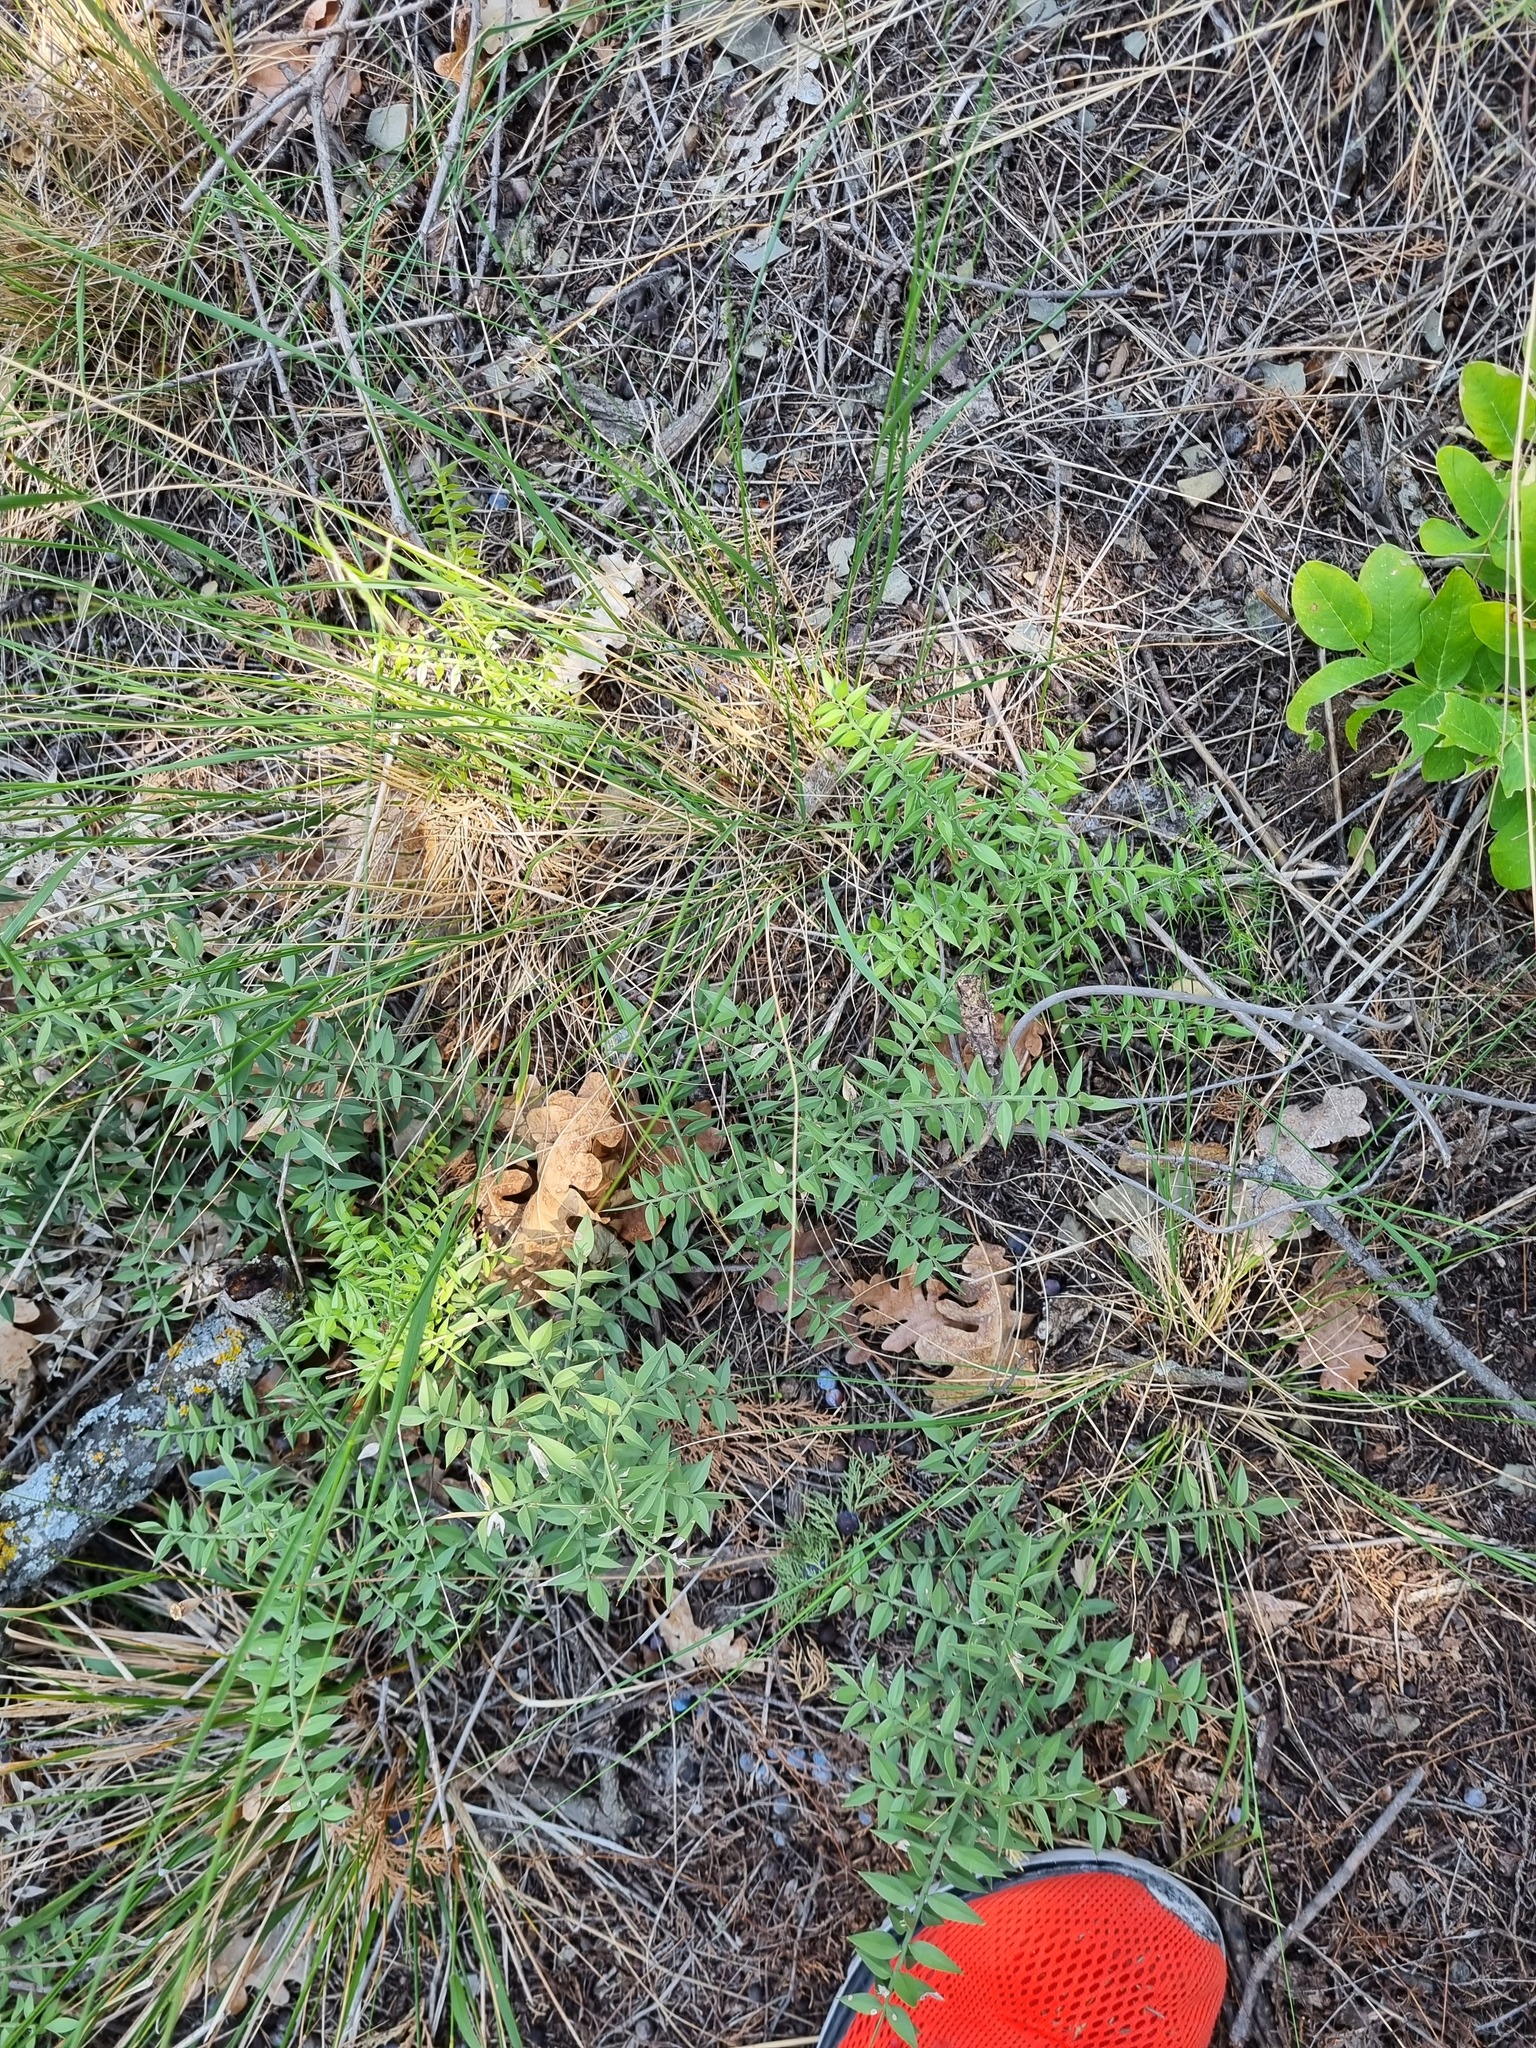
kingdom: Plantae
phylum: Tracheophyta
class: Liliopsida
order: Asparagales
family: Asparagaceae
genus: Ruscus
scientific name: Ruscus aculeatus
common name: Butcher's-broom
